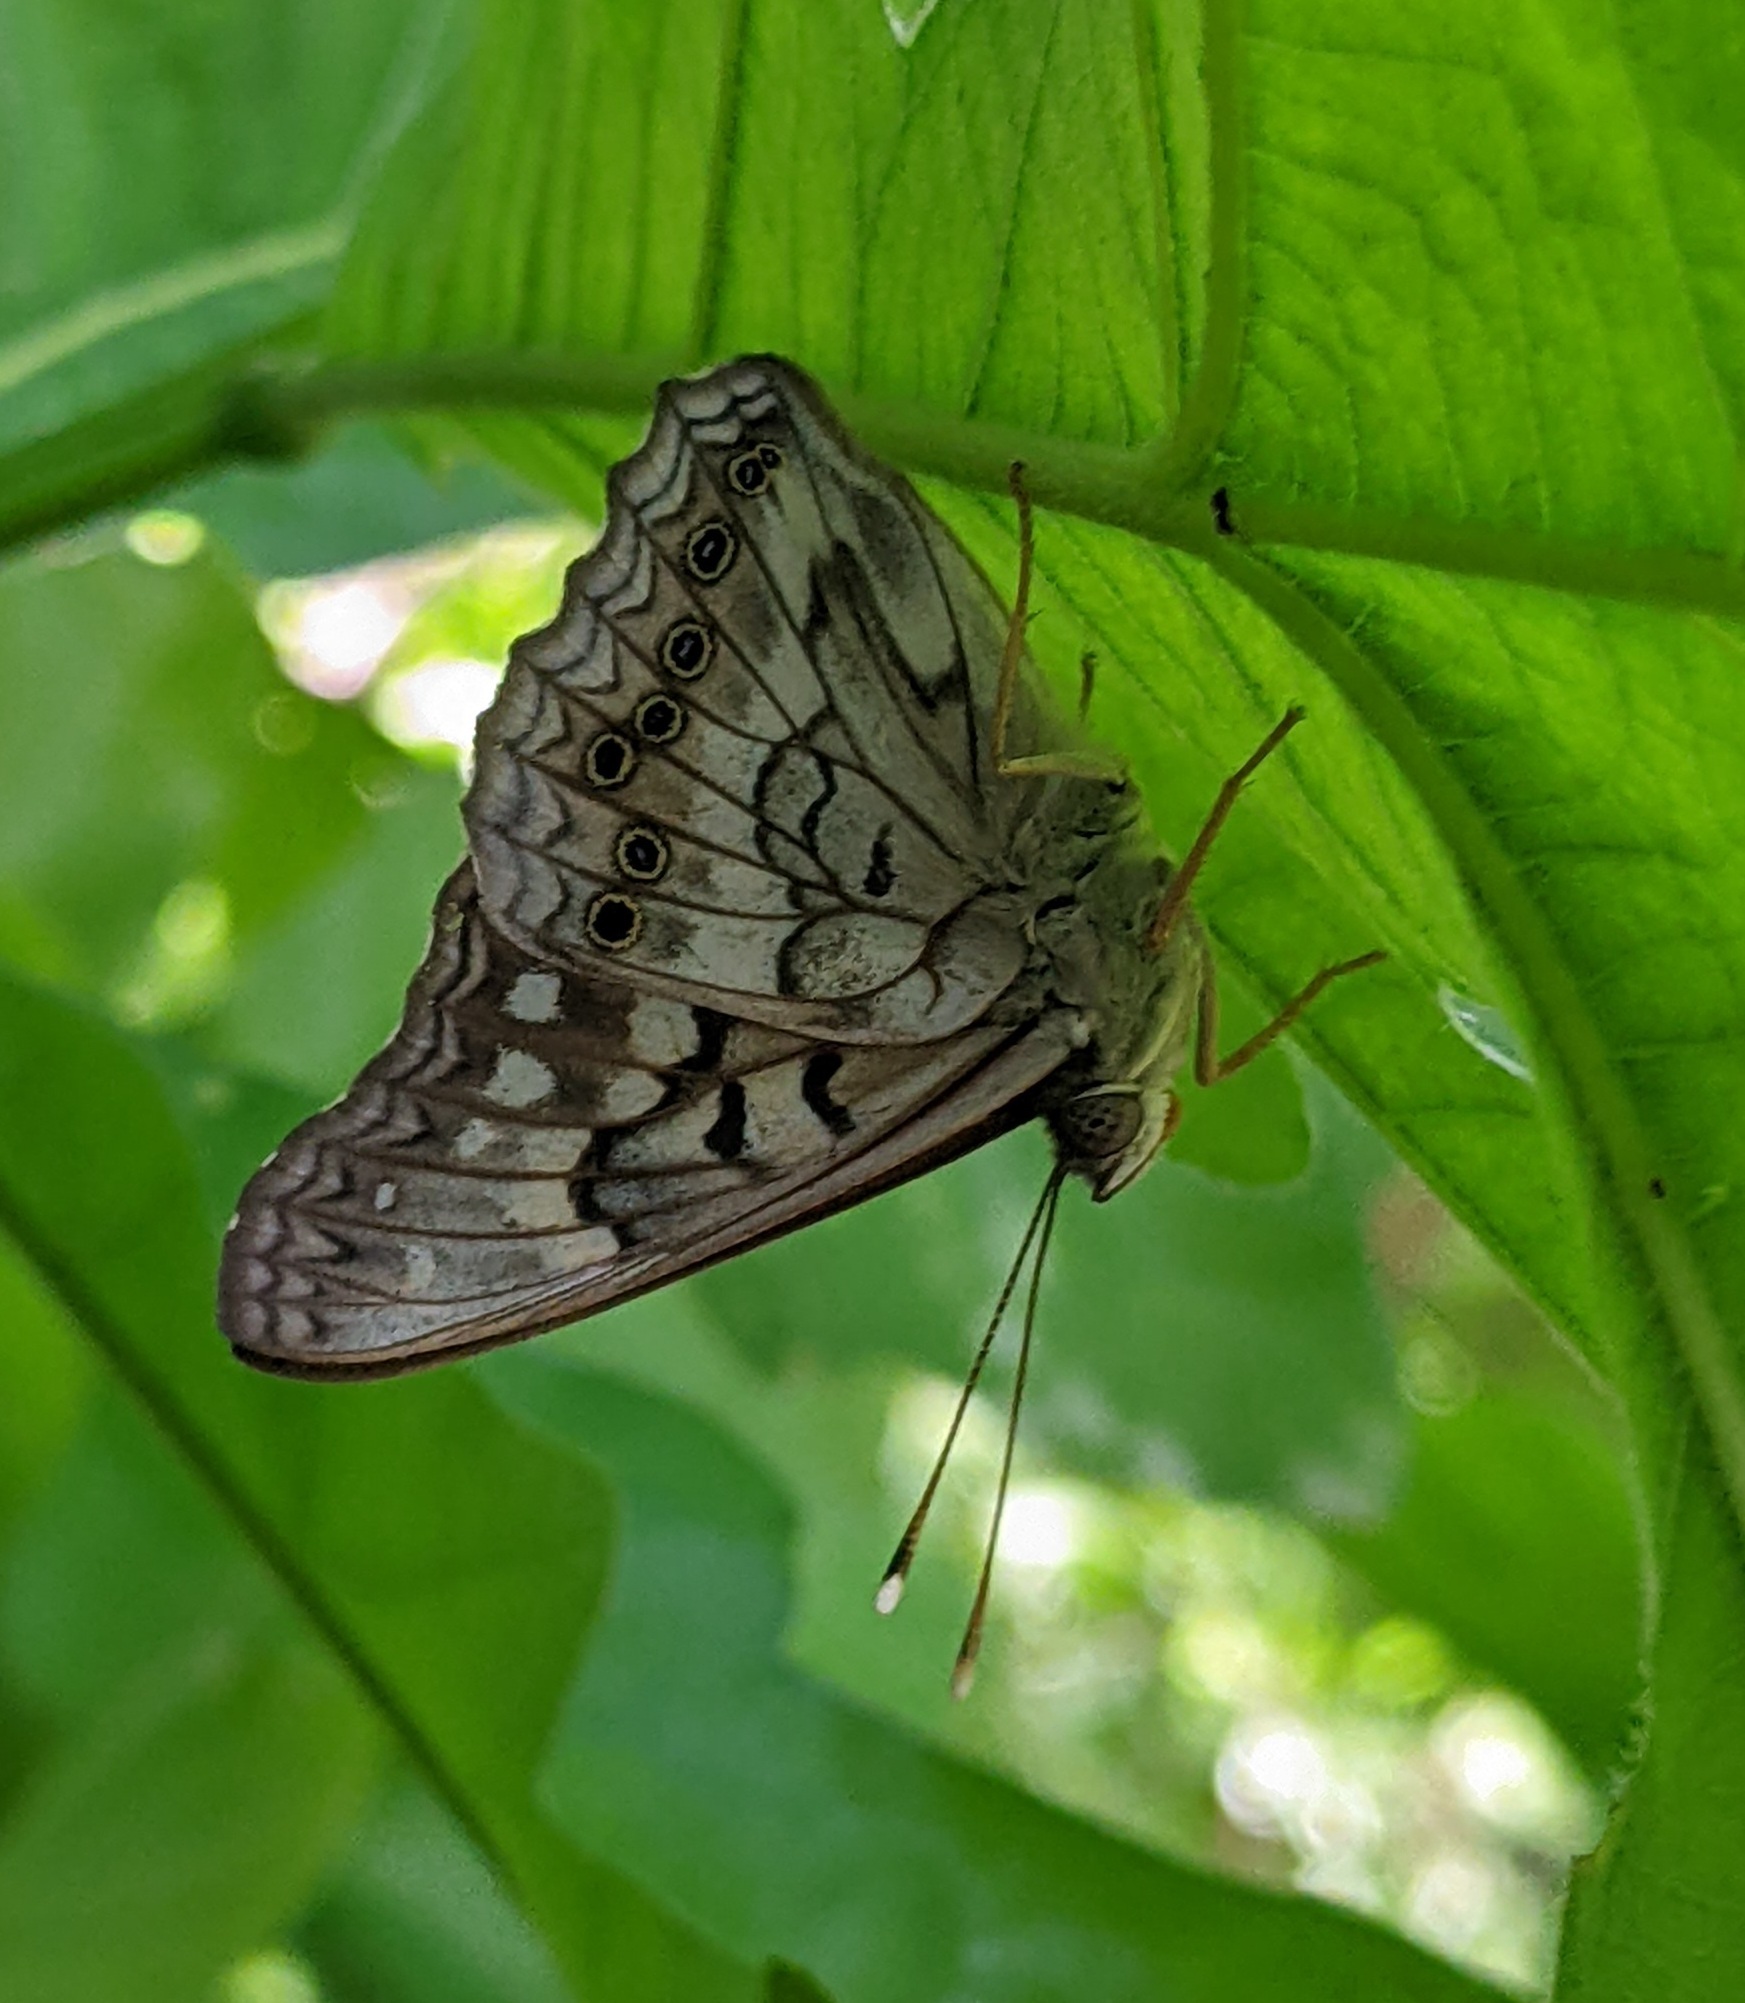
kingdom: Animalia
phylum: Arthropoda
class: Insecta
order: Lepidoptera
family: Nymphalidae
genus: Asterocampa
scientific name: Asterocampa clyton
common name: Tawny emperor
